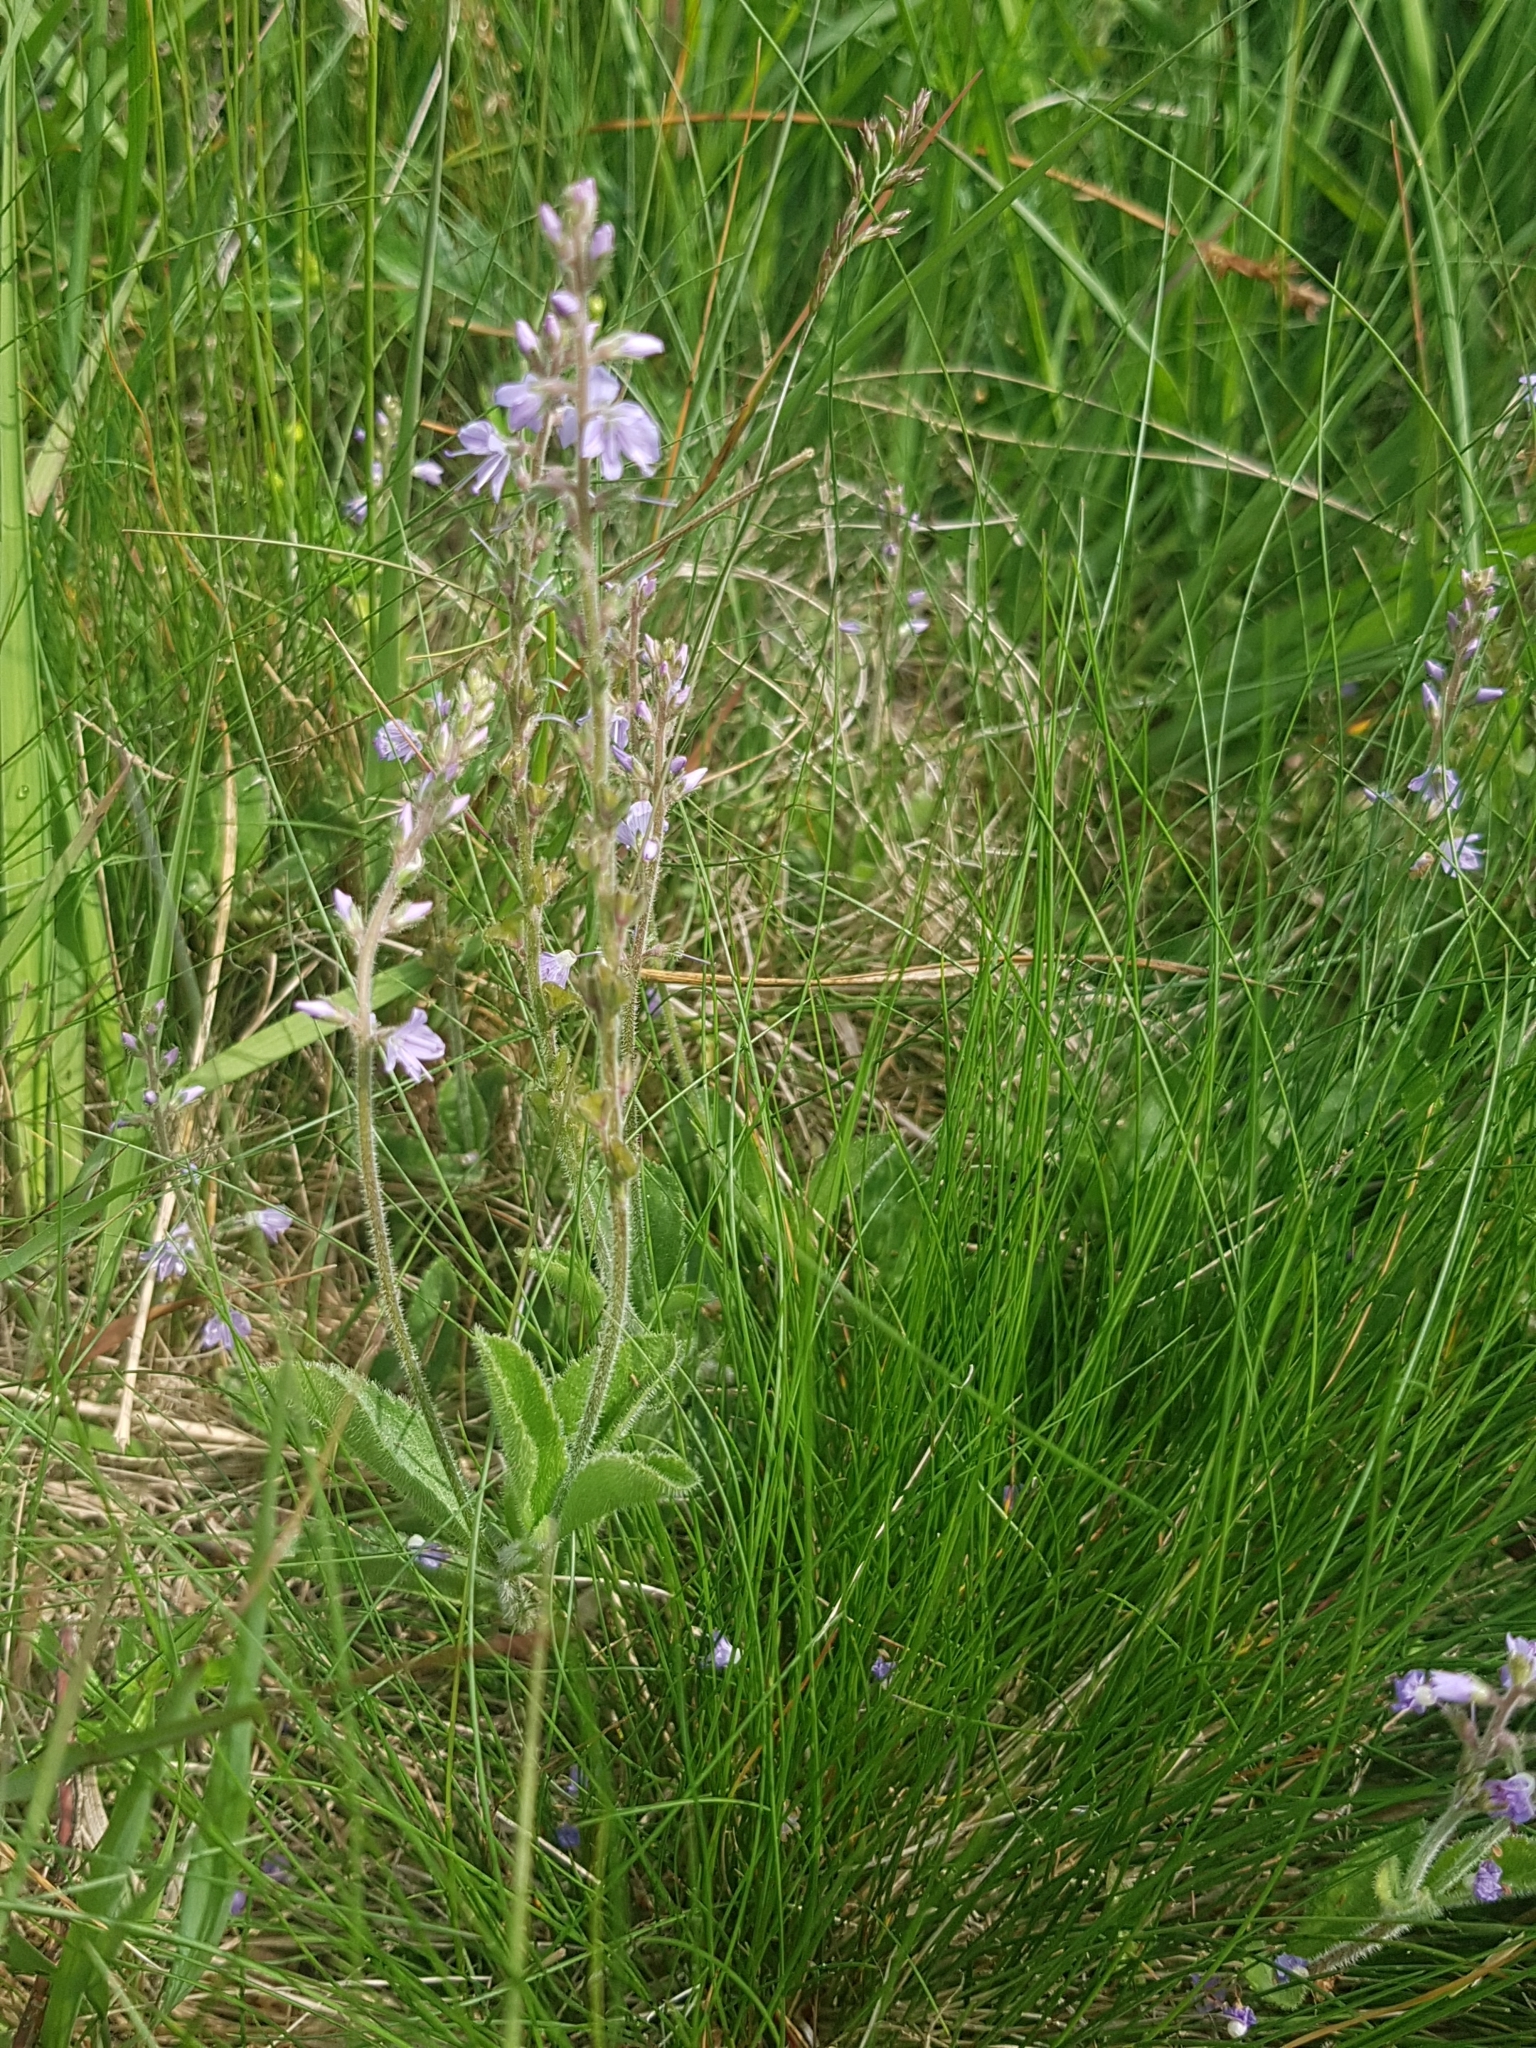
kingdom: Plantae
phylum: Tracheophyta
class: Magnoliopsida
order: Lamiales
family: Plantaginaceae
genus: Veronica
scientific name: Veronica officinalis
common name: Common speedwell
